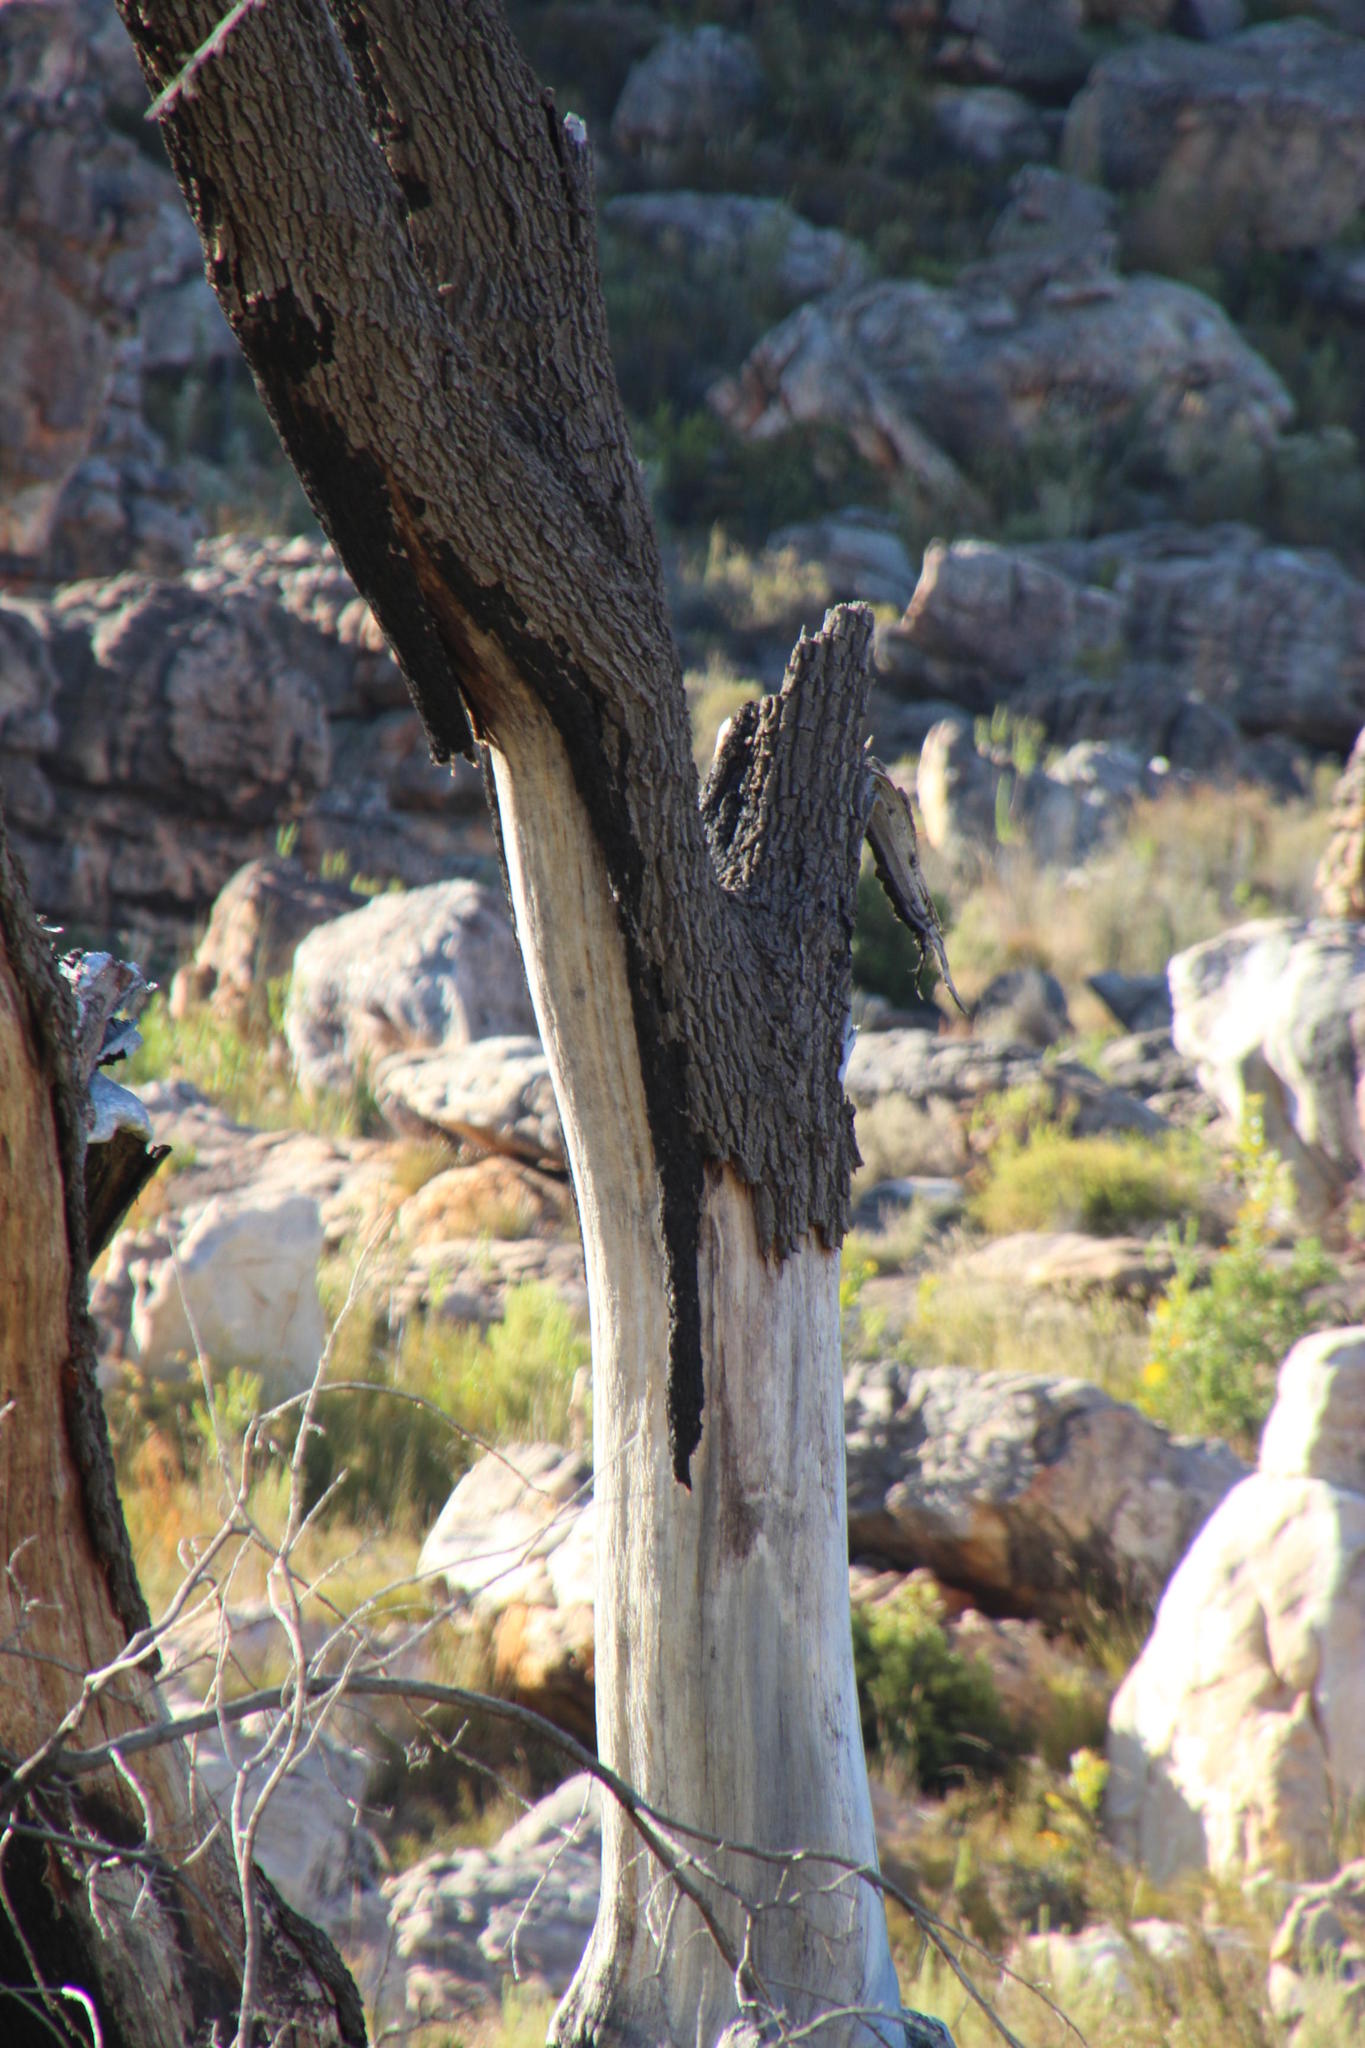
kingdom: Plantae
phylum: Tracheophyta
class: Magnoliopsida
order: Fagales
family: Fagaceae
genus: Quercus
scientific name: Quercus robur
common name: Pedunculate oak
